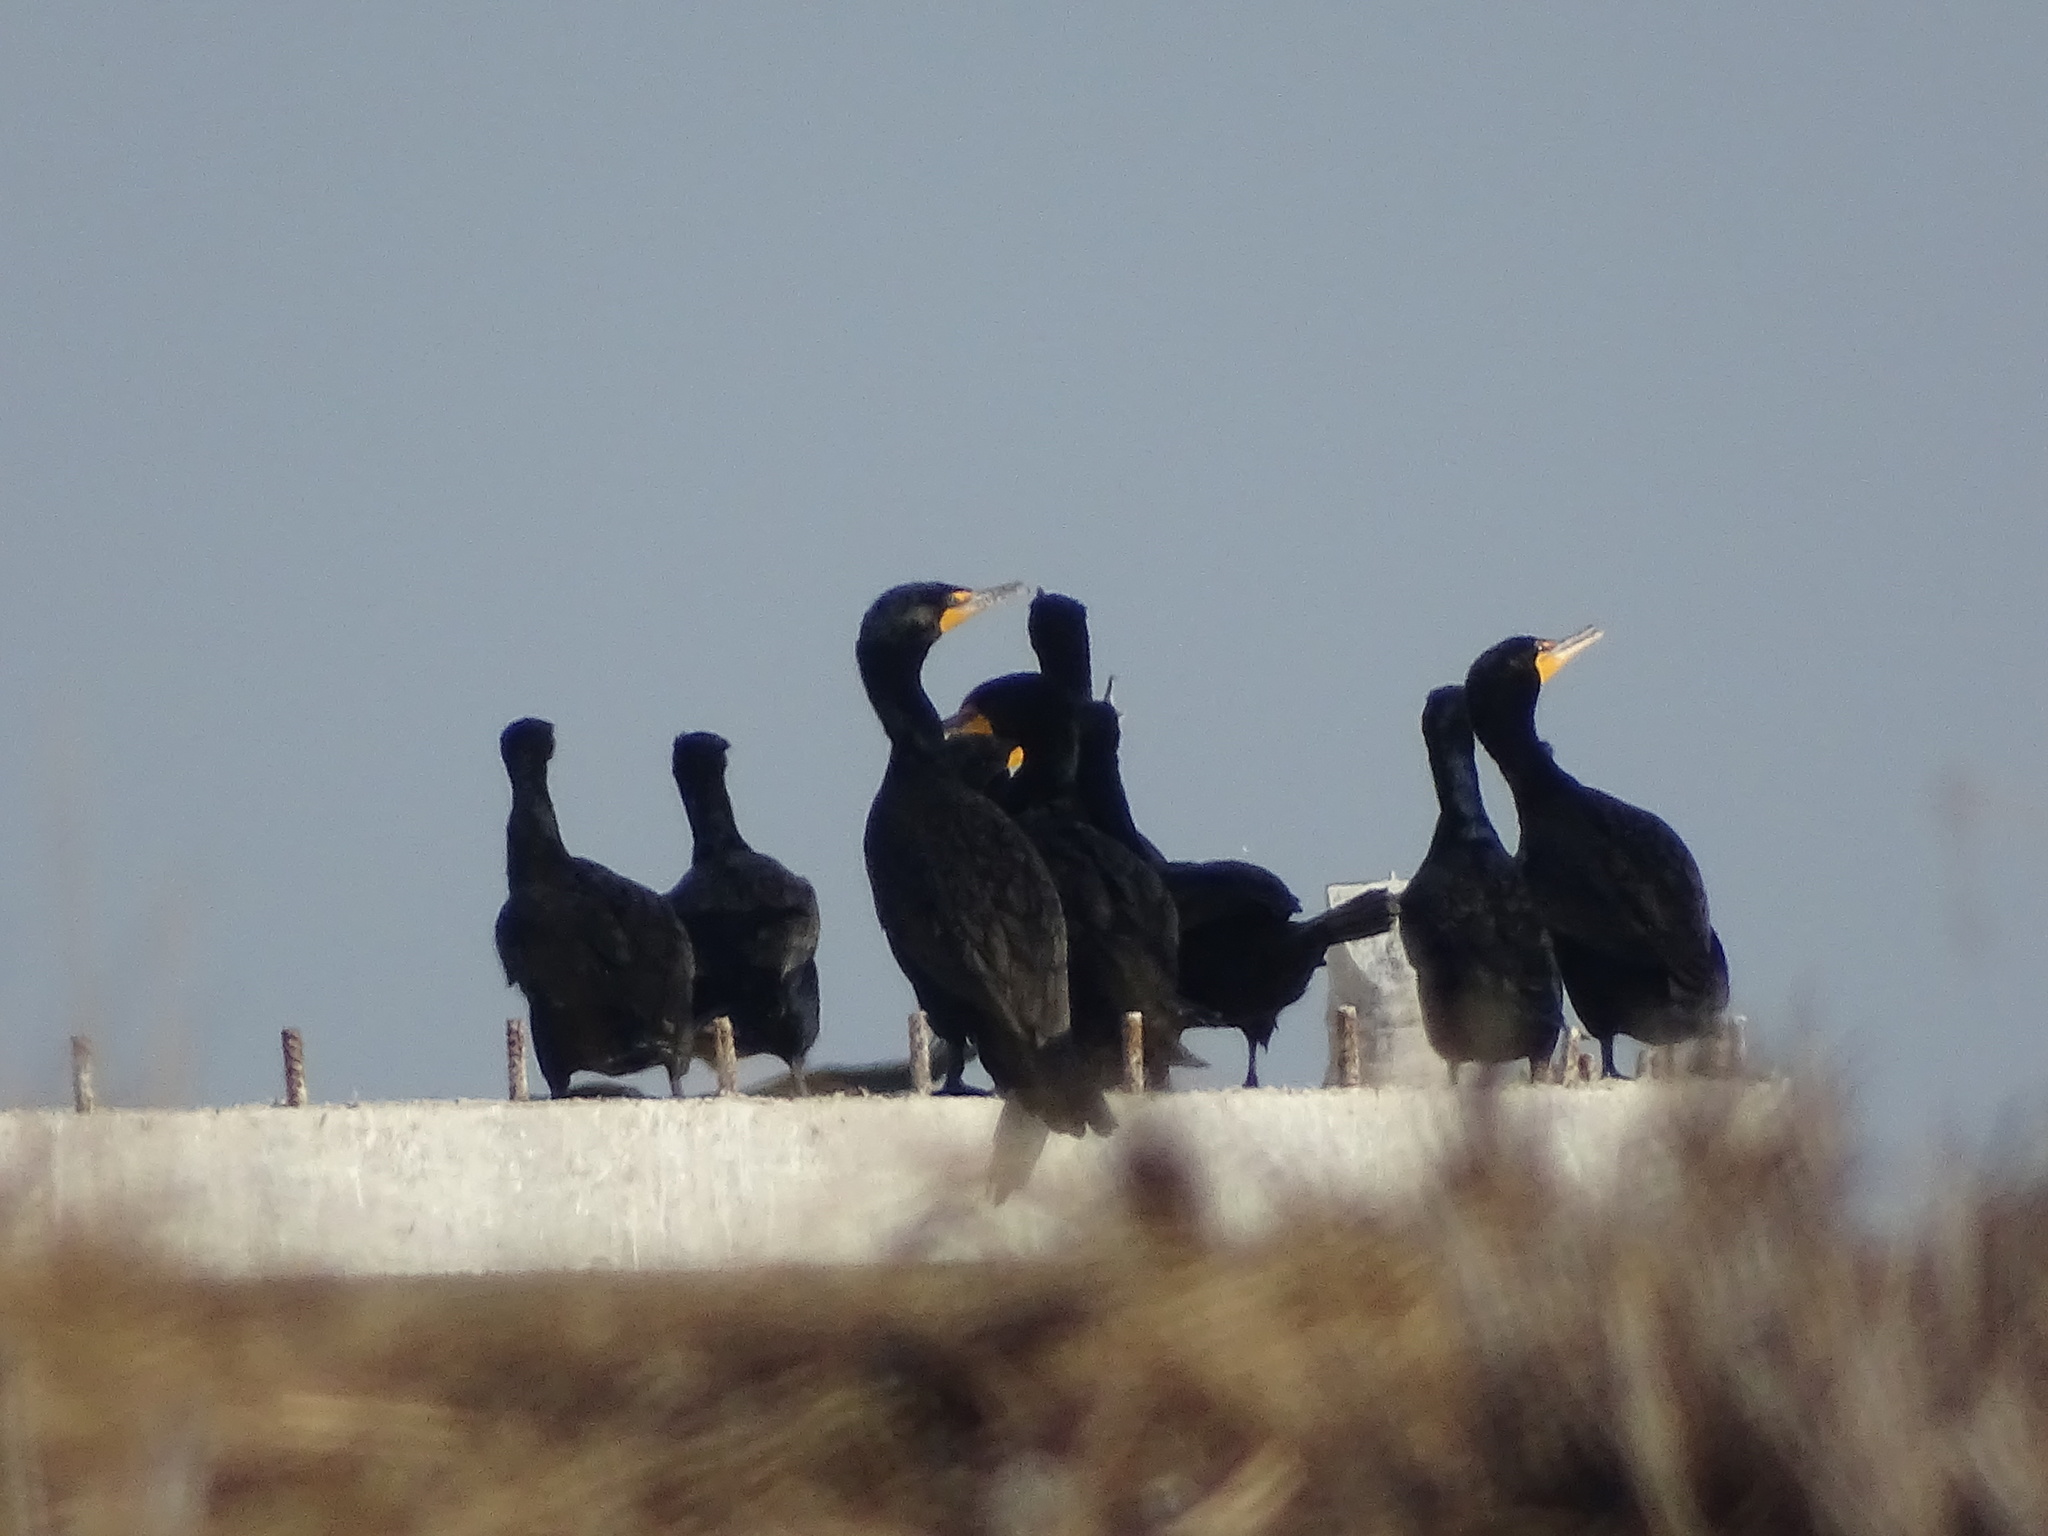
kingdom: Animalia
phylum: Chordata
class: Aves
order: Suliformes
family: Phalacrocoracidae
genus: Phalacrocorax
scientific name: Phalacrocorax auritus
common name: Double-crested cormorant
